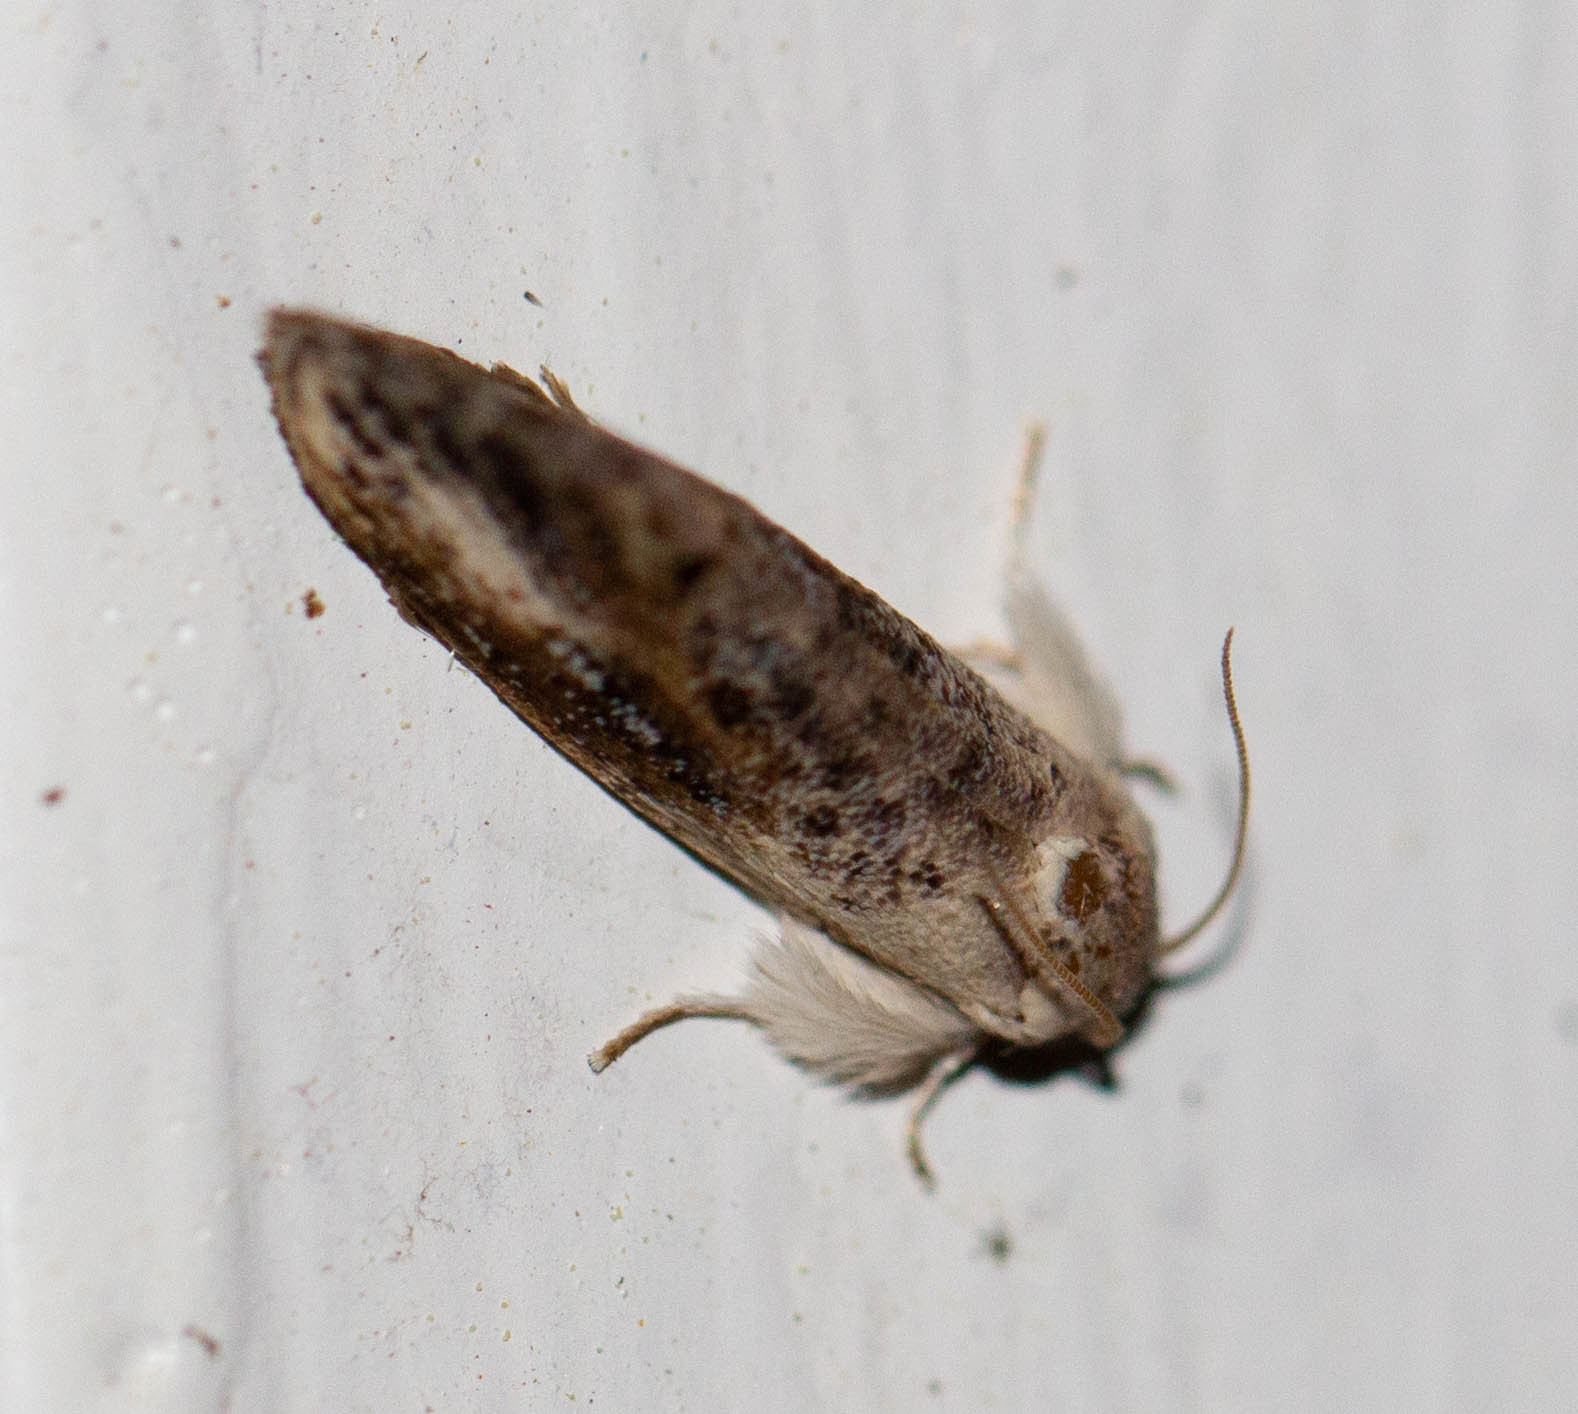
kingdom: Animalia
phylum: Arthropoda
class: Insecta
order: Lepidoptera
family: Tineidae
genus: Acrolophus
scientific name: Acrolophus mycetophagus
